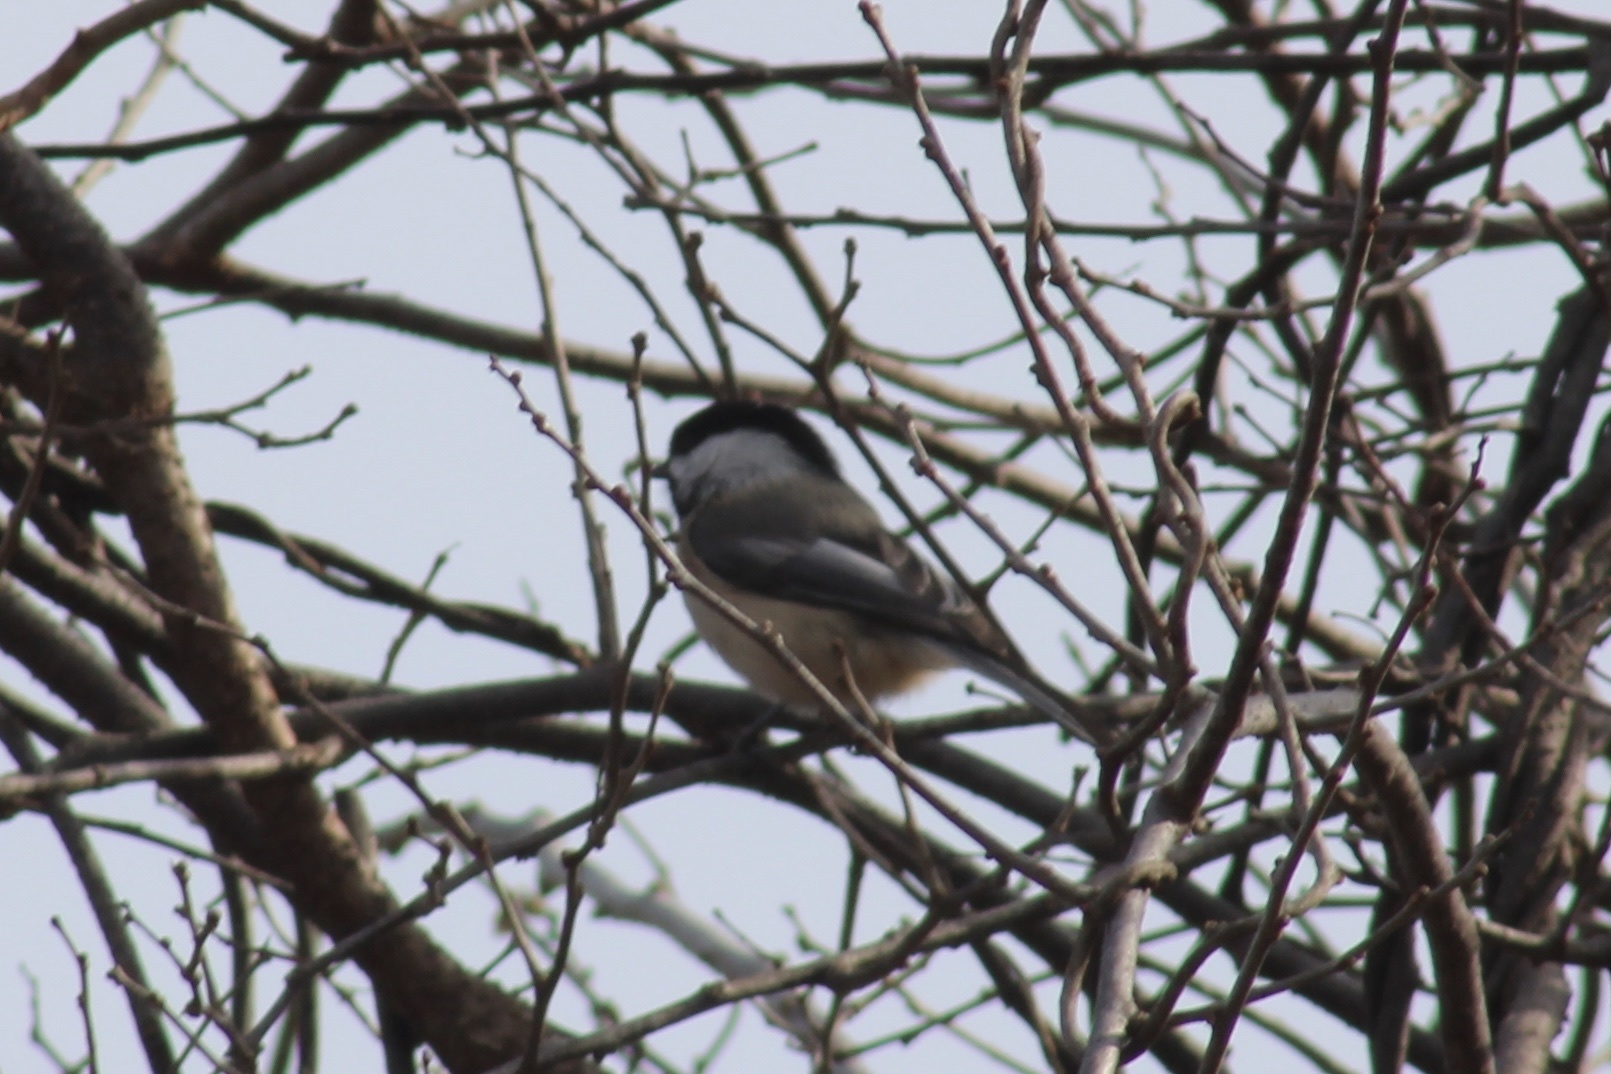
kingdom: Animalia
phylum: Chordata
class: Aves
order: Passeriformes
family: Paridae
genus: Poecile
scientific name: Poecile atricapillus
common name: Black-capped chickadee
